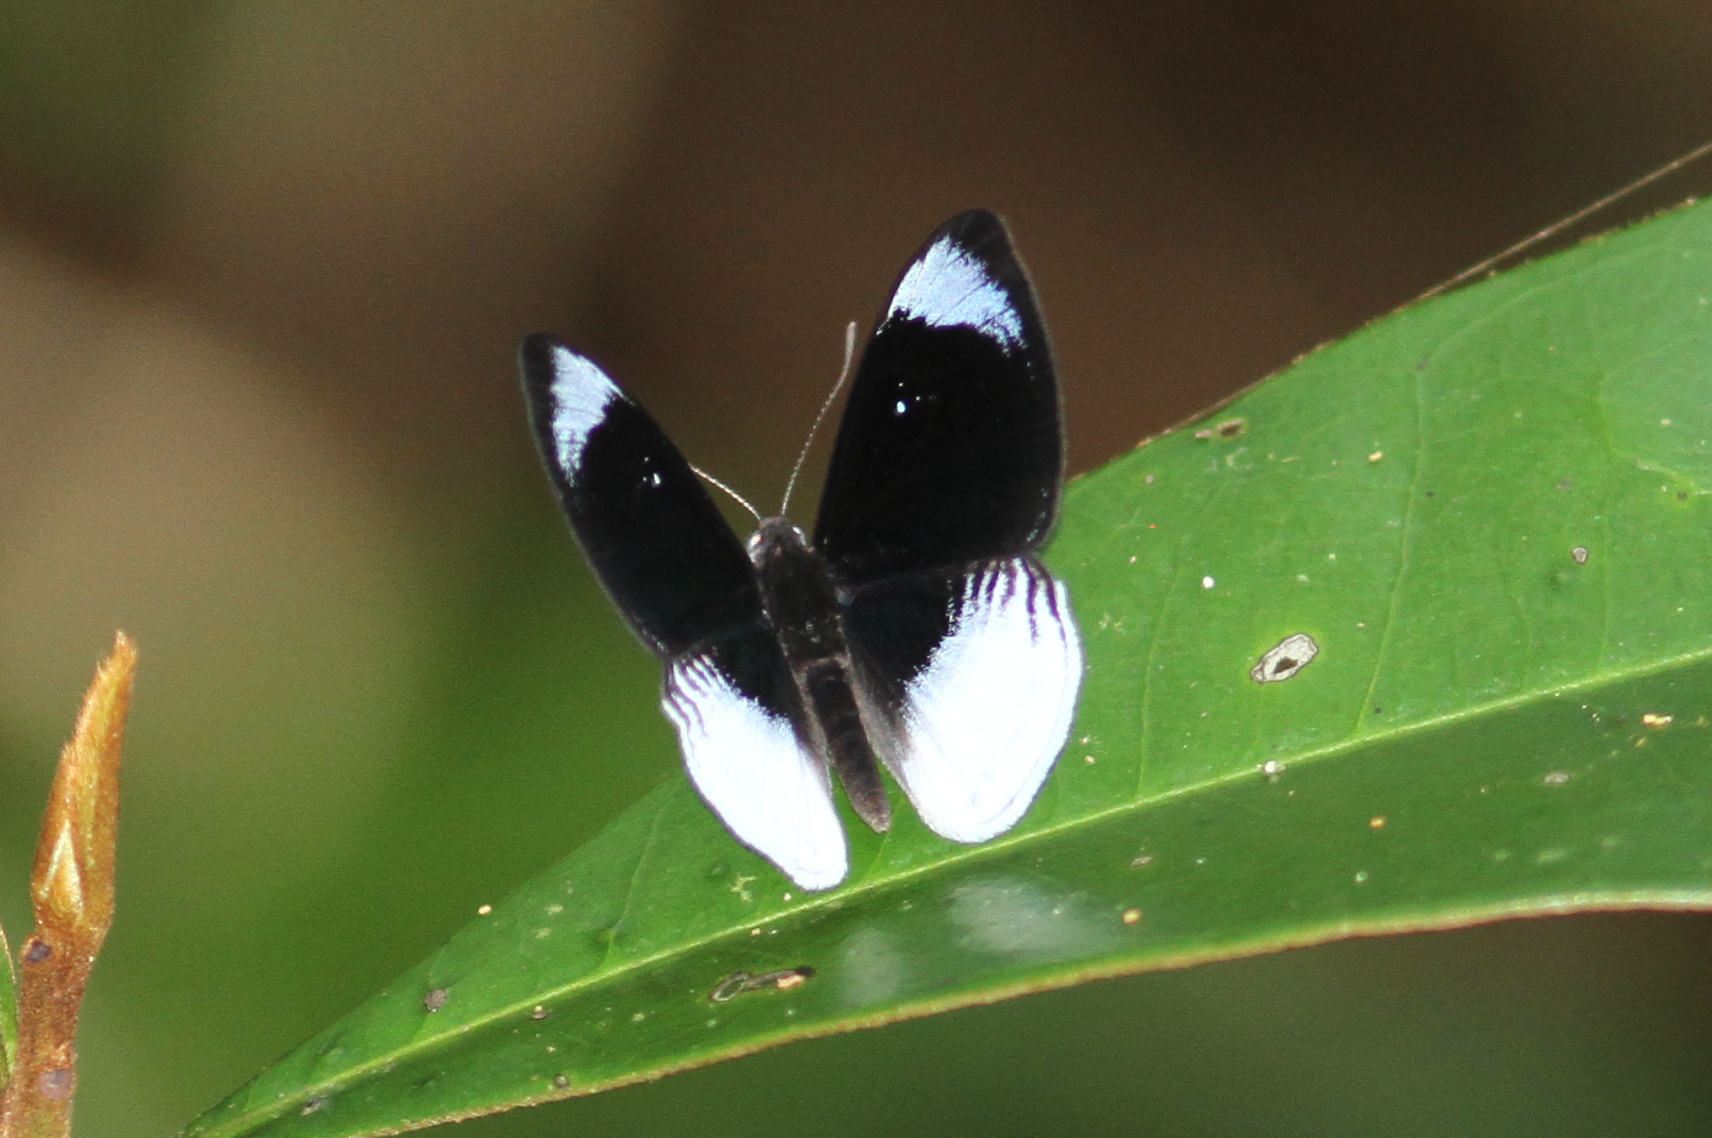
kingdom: Animalia
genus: Mesosemia
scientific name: Mesosemia metope
